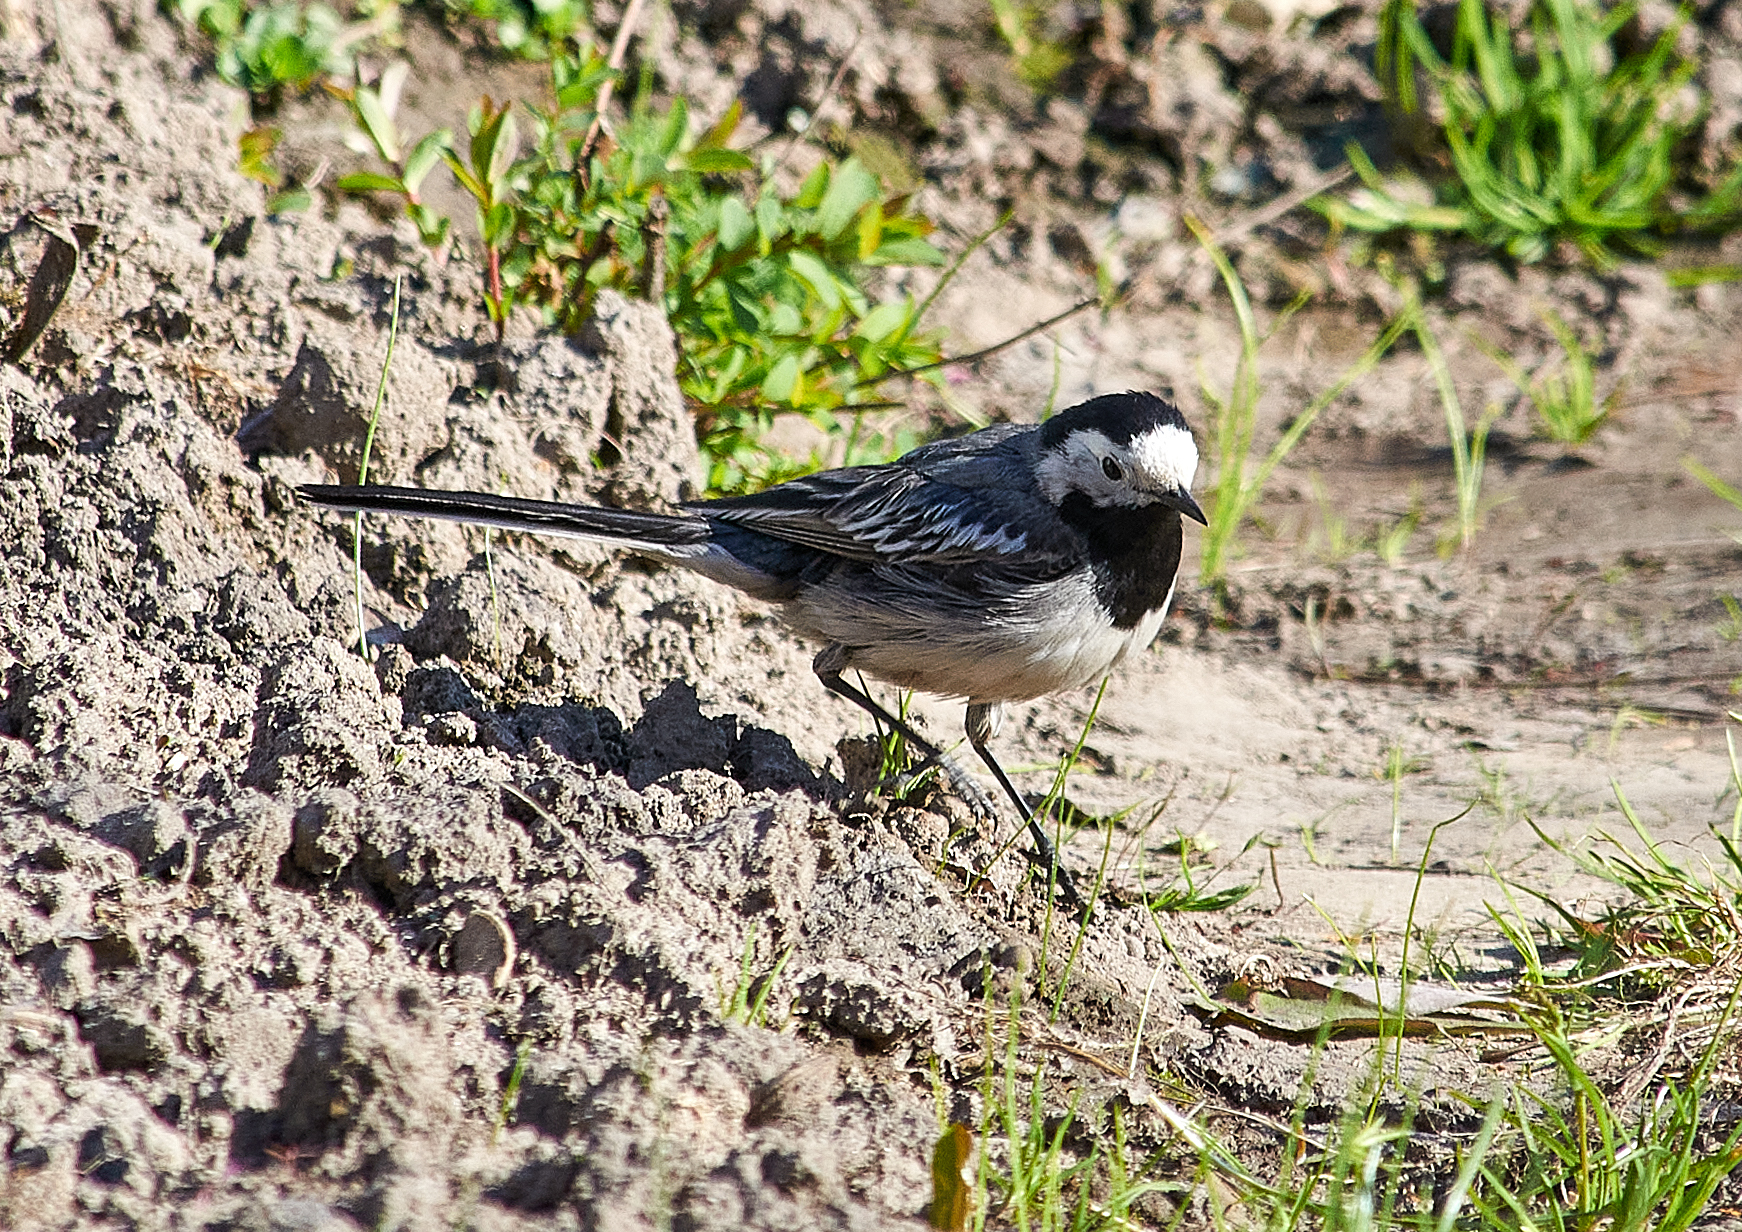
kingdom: Animalia
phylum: Chordata
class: Aves
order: Passeriformes
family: Motacillidae
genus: Motacilla
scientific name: Motacilla alba
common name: White wagtail
